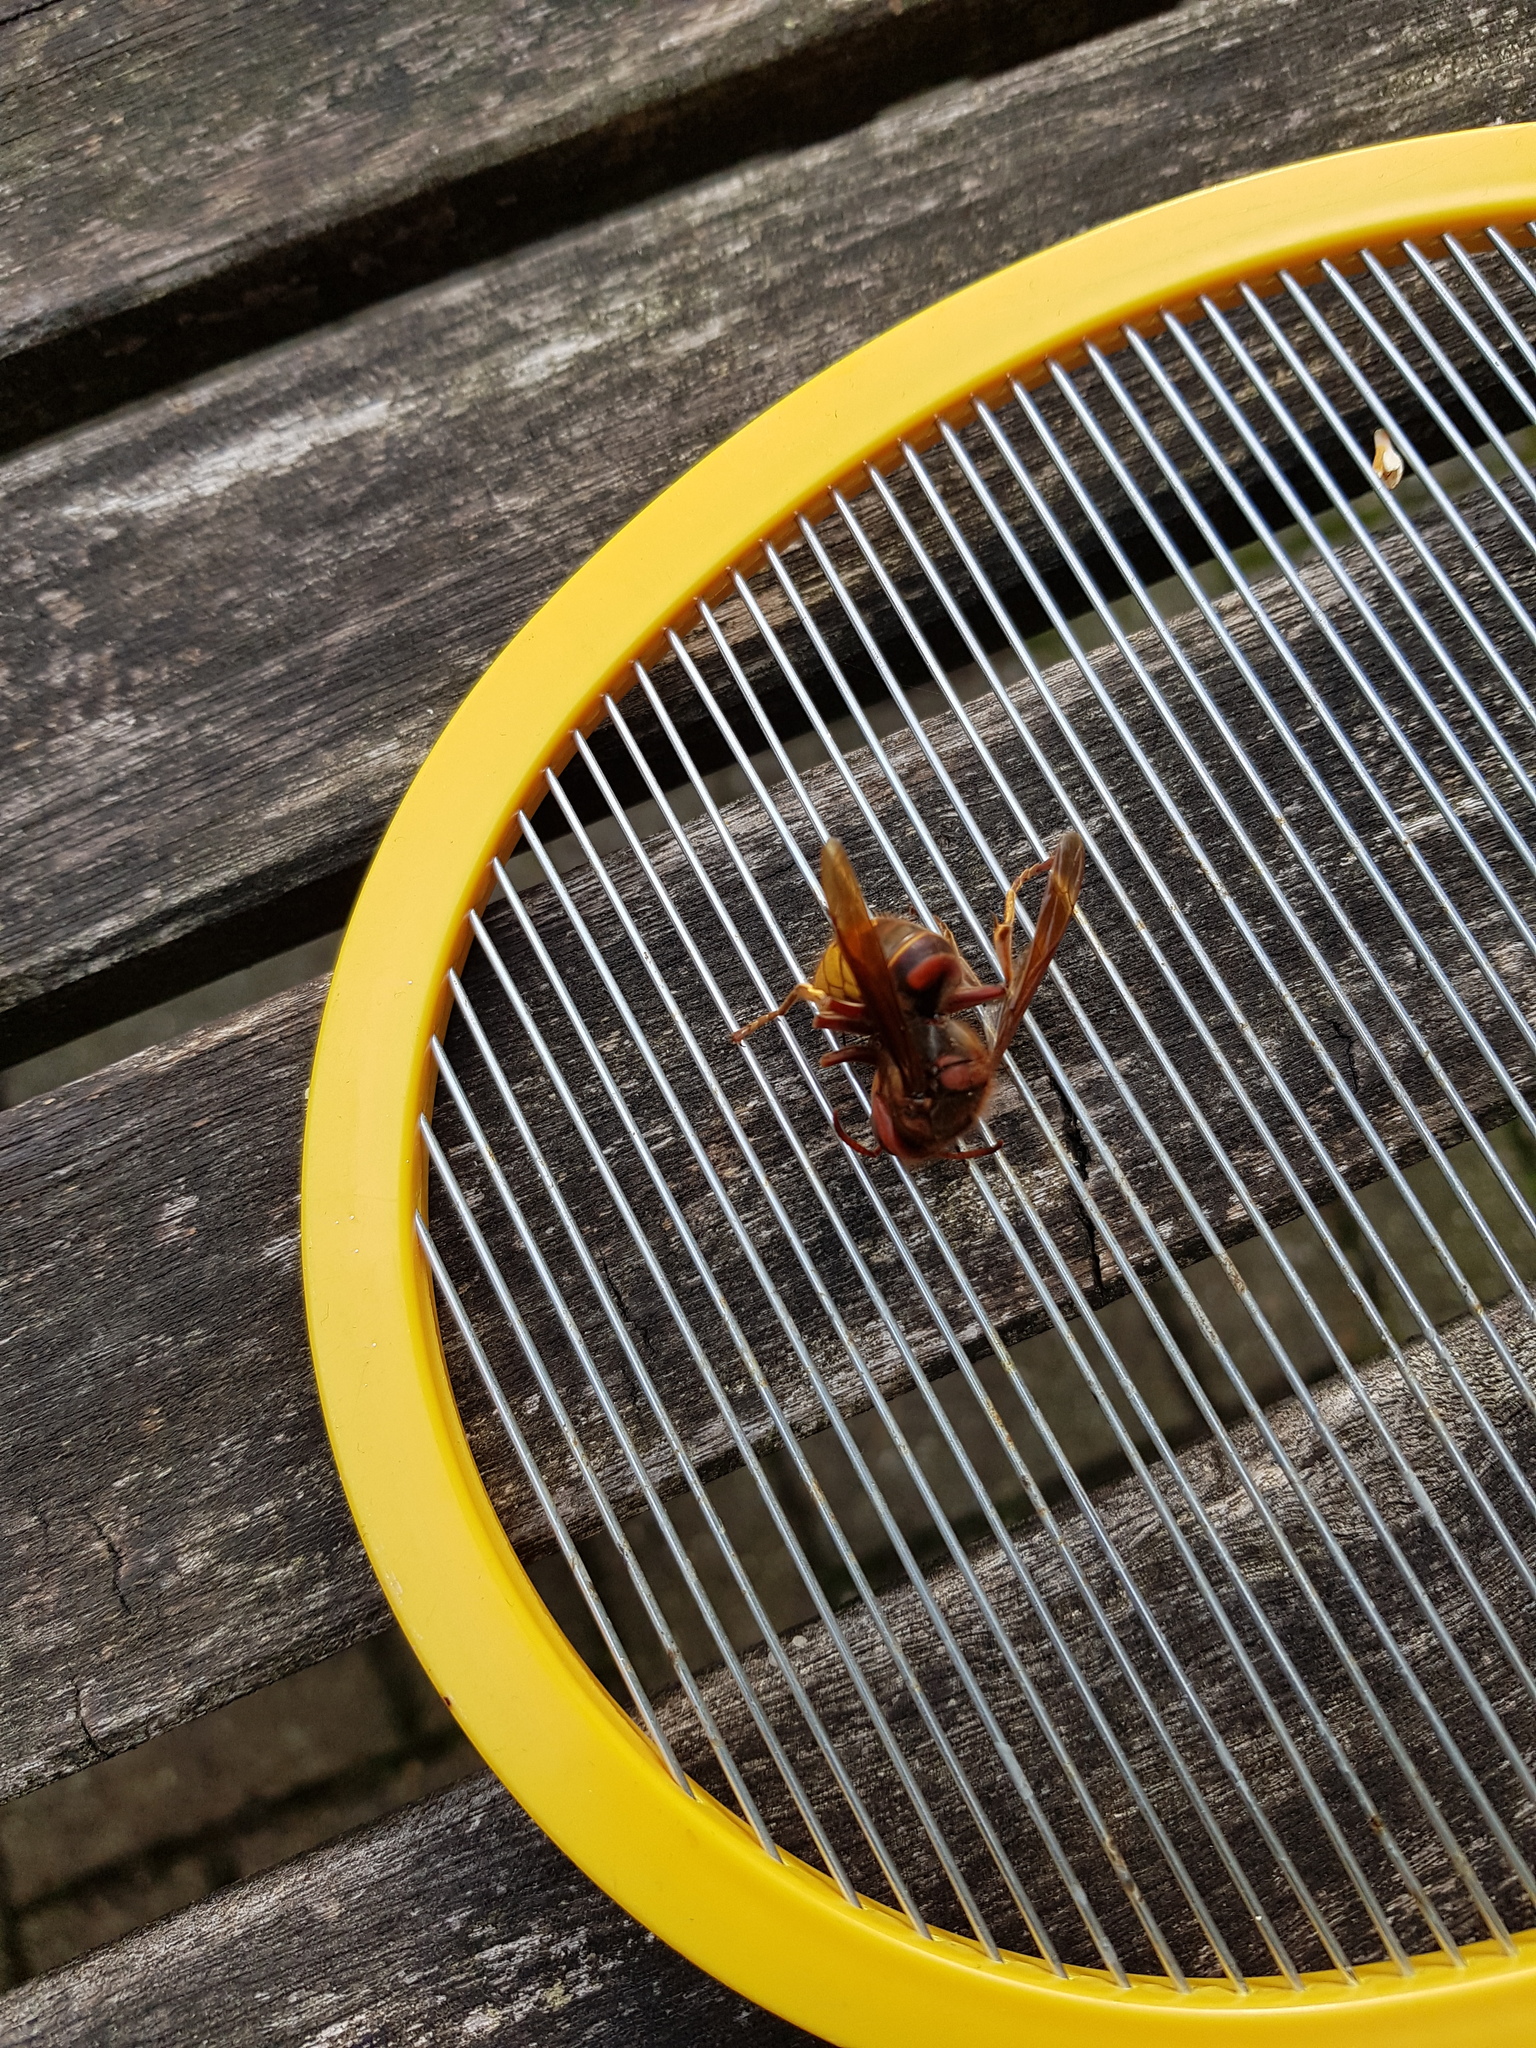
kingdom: Animalia
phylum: Arthropoda
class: Insecta
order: Hymenoptera
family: Vespidae
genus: Vespa
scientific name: Vespa crabro
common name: Hornet
